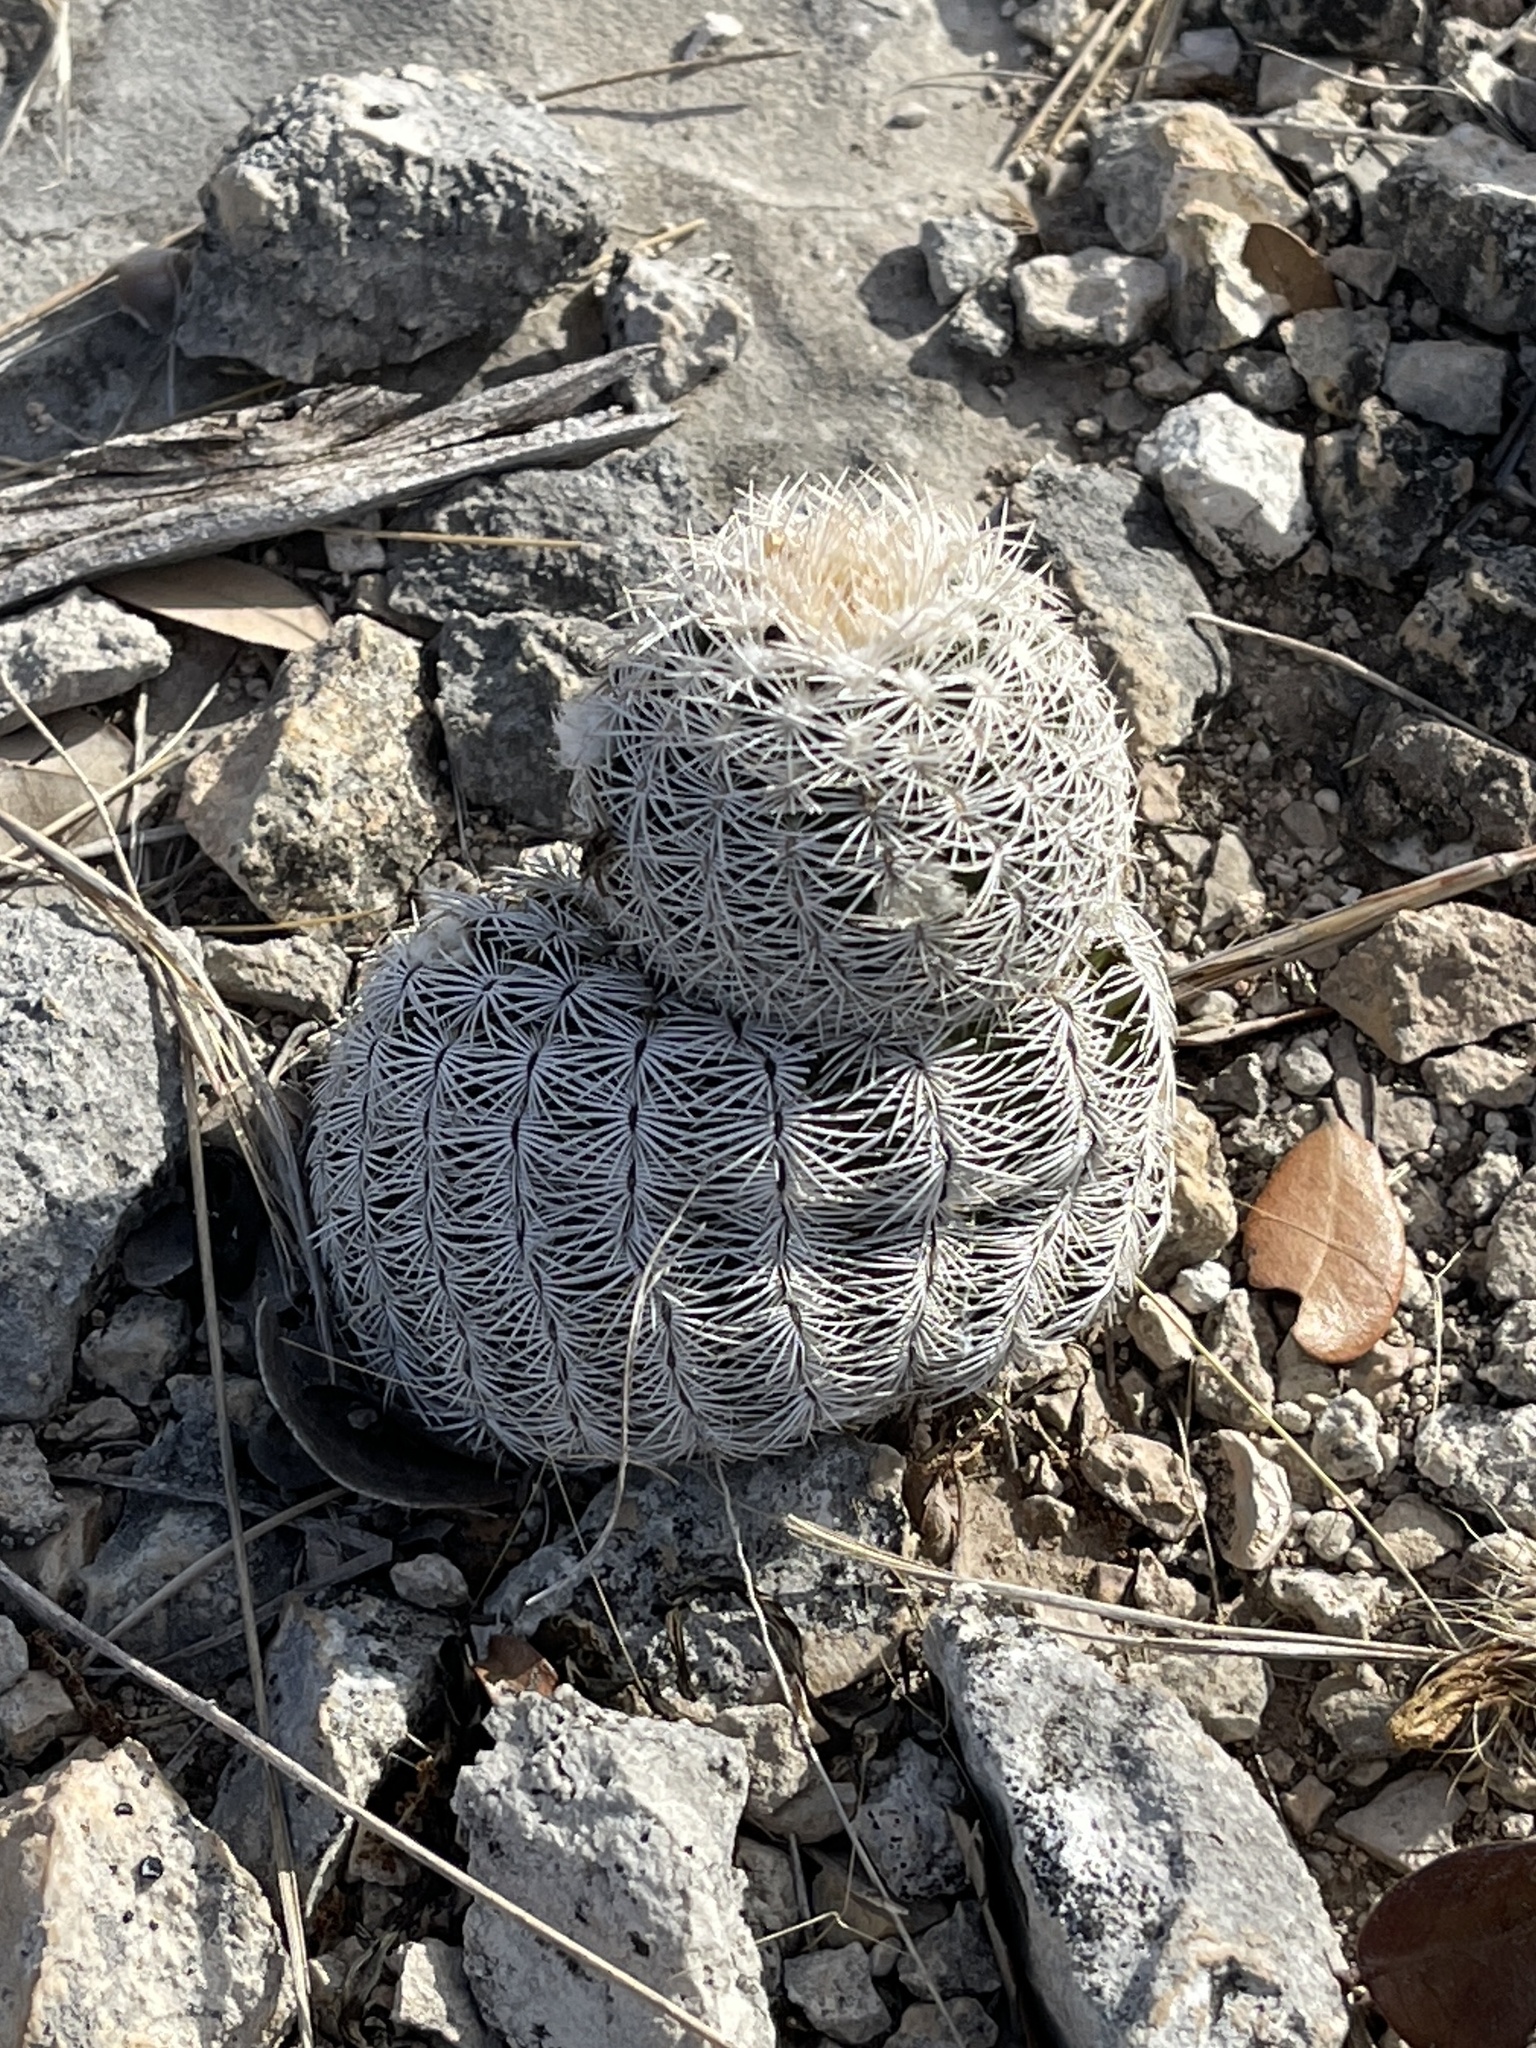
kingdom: Plantae
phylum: Tracheophyta
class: Magnoliopsida
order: Caryophyllales
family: Cactaceae
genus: Echinocereus
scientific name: Echinocereus reichenbachii
